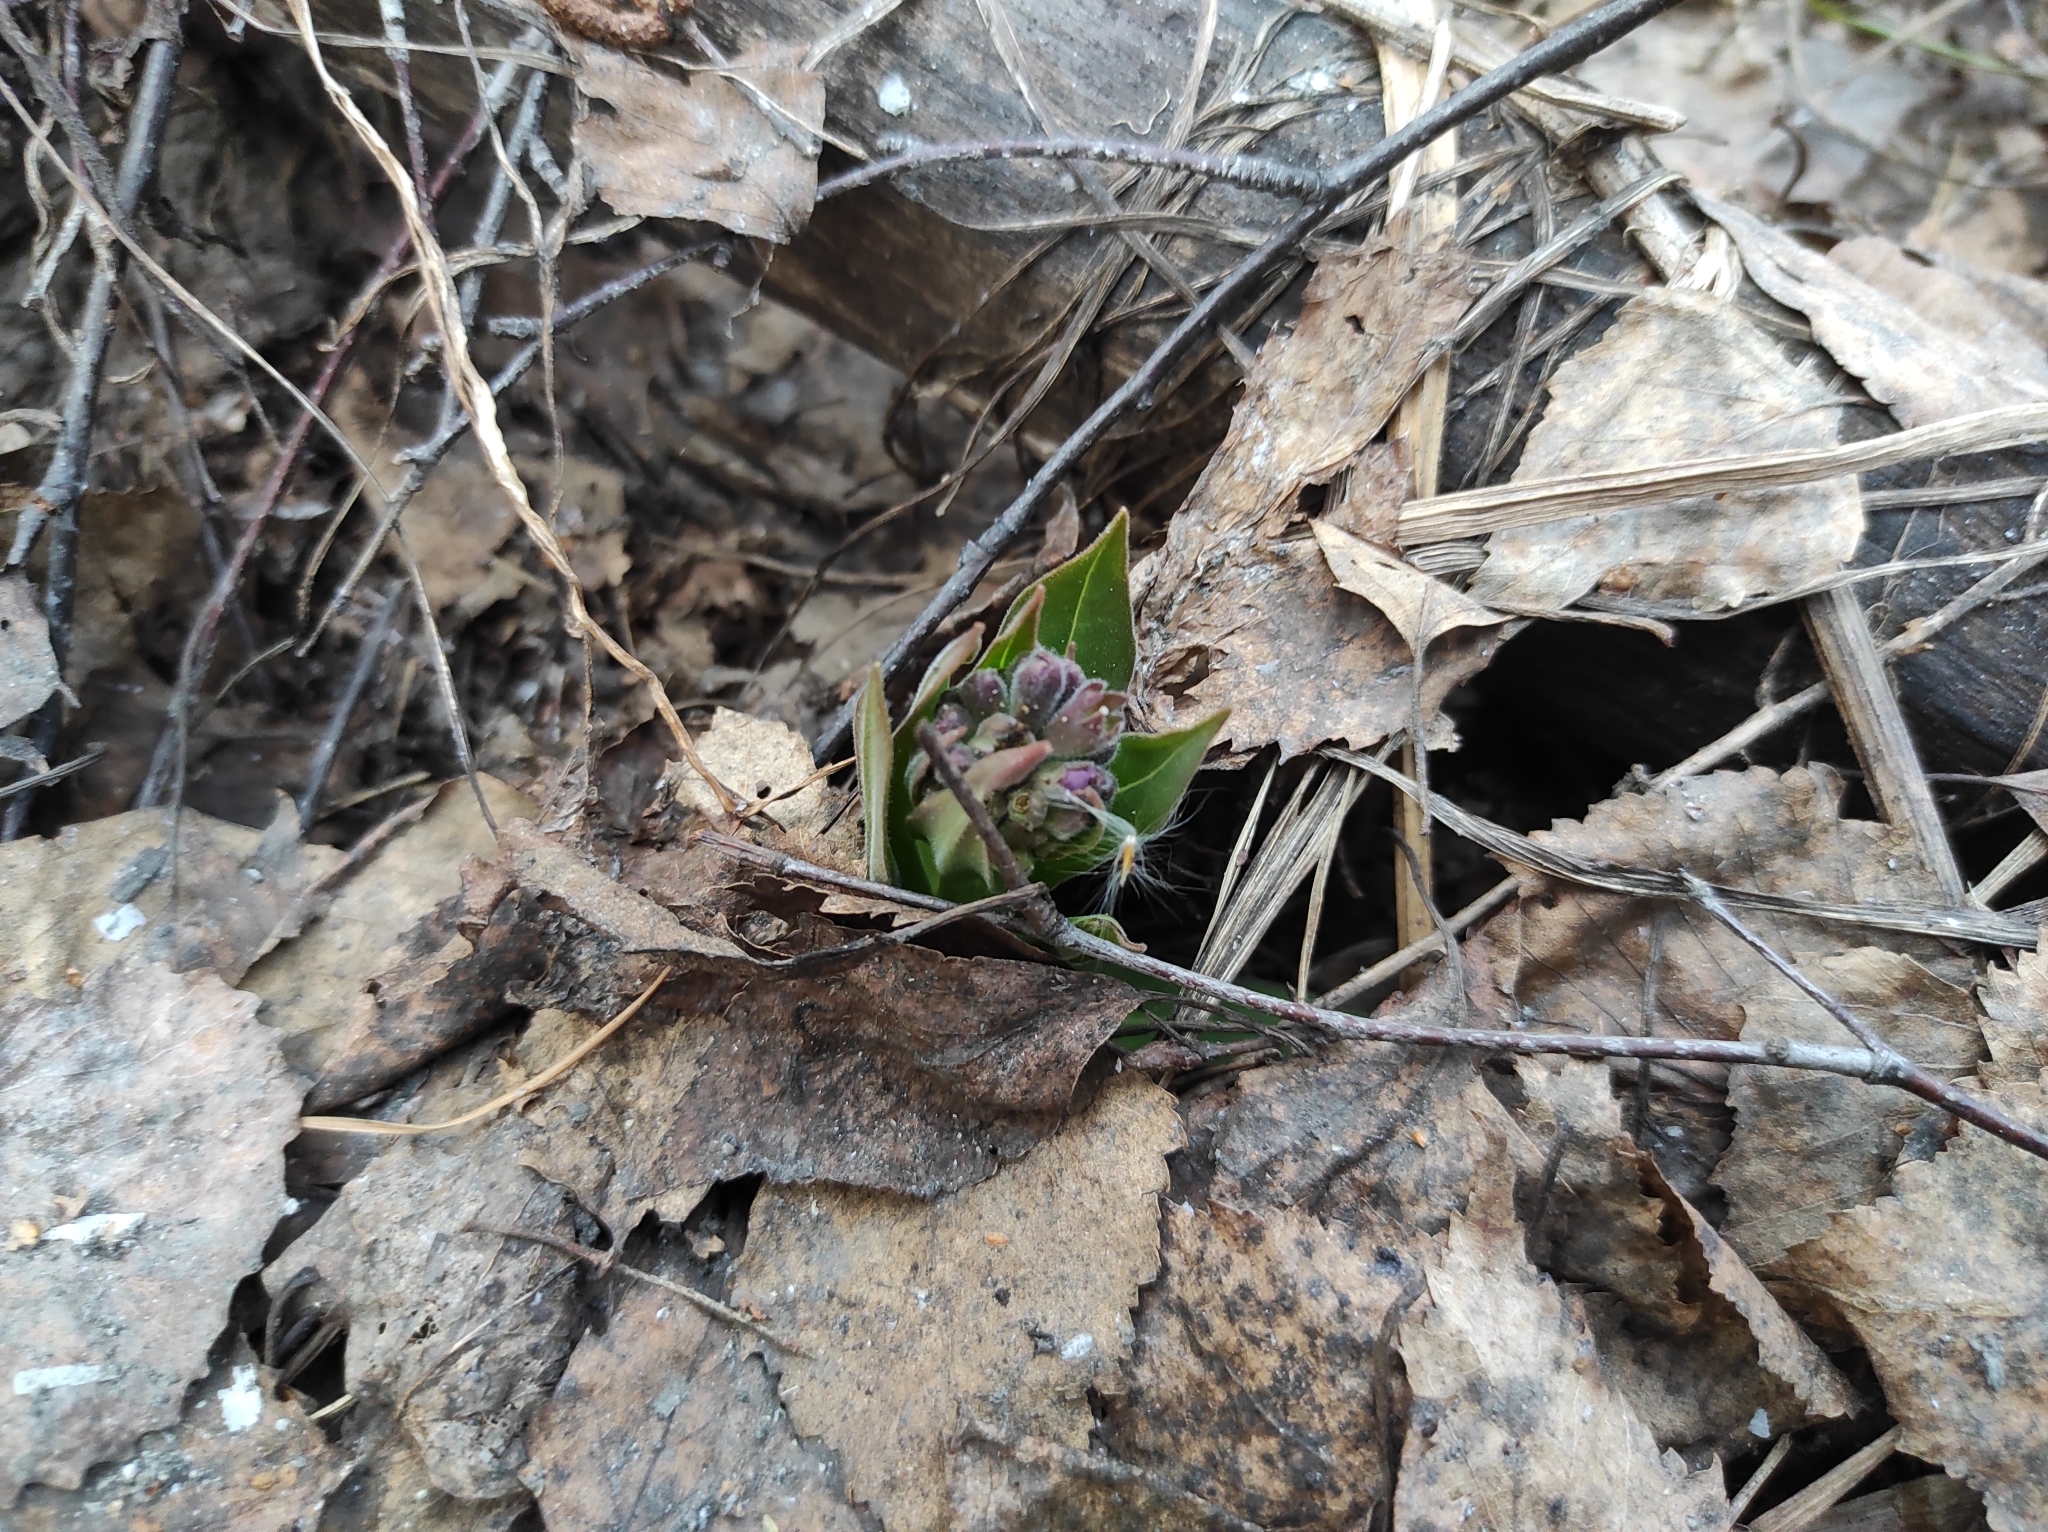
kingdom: Plantae
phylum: Tracheophyta
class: Magnoliopsida
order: Boraginales
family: Boraginaceae
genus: Pulmonaria
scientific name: Pulmonaria mollis
